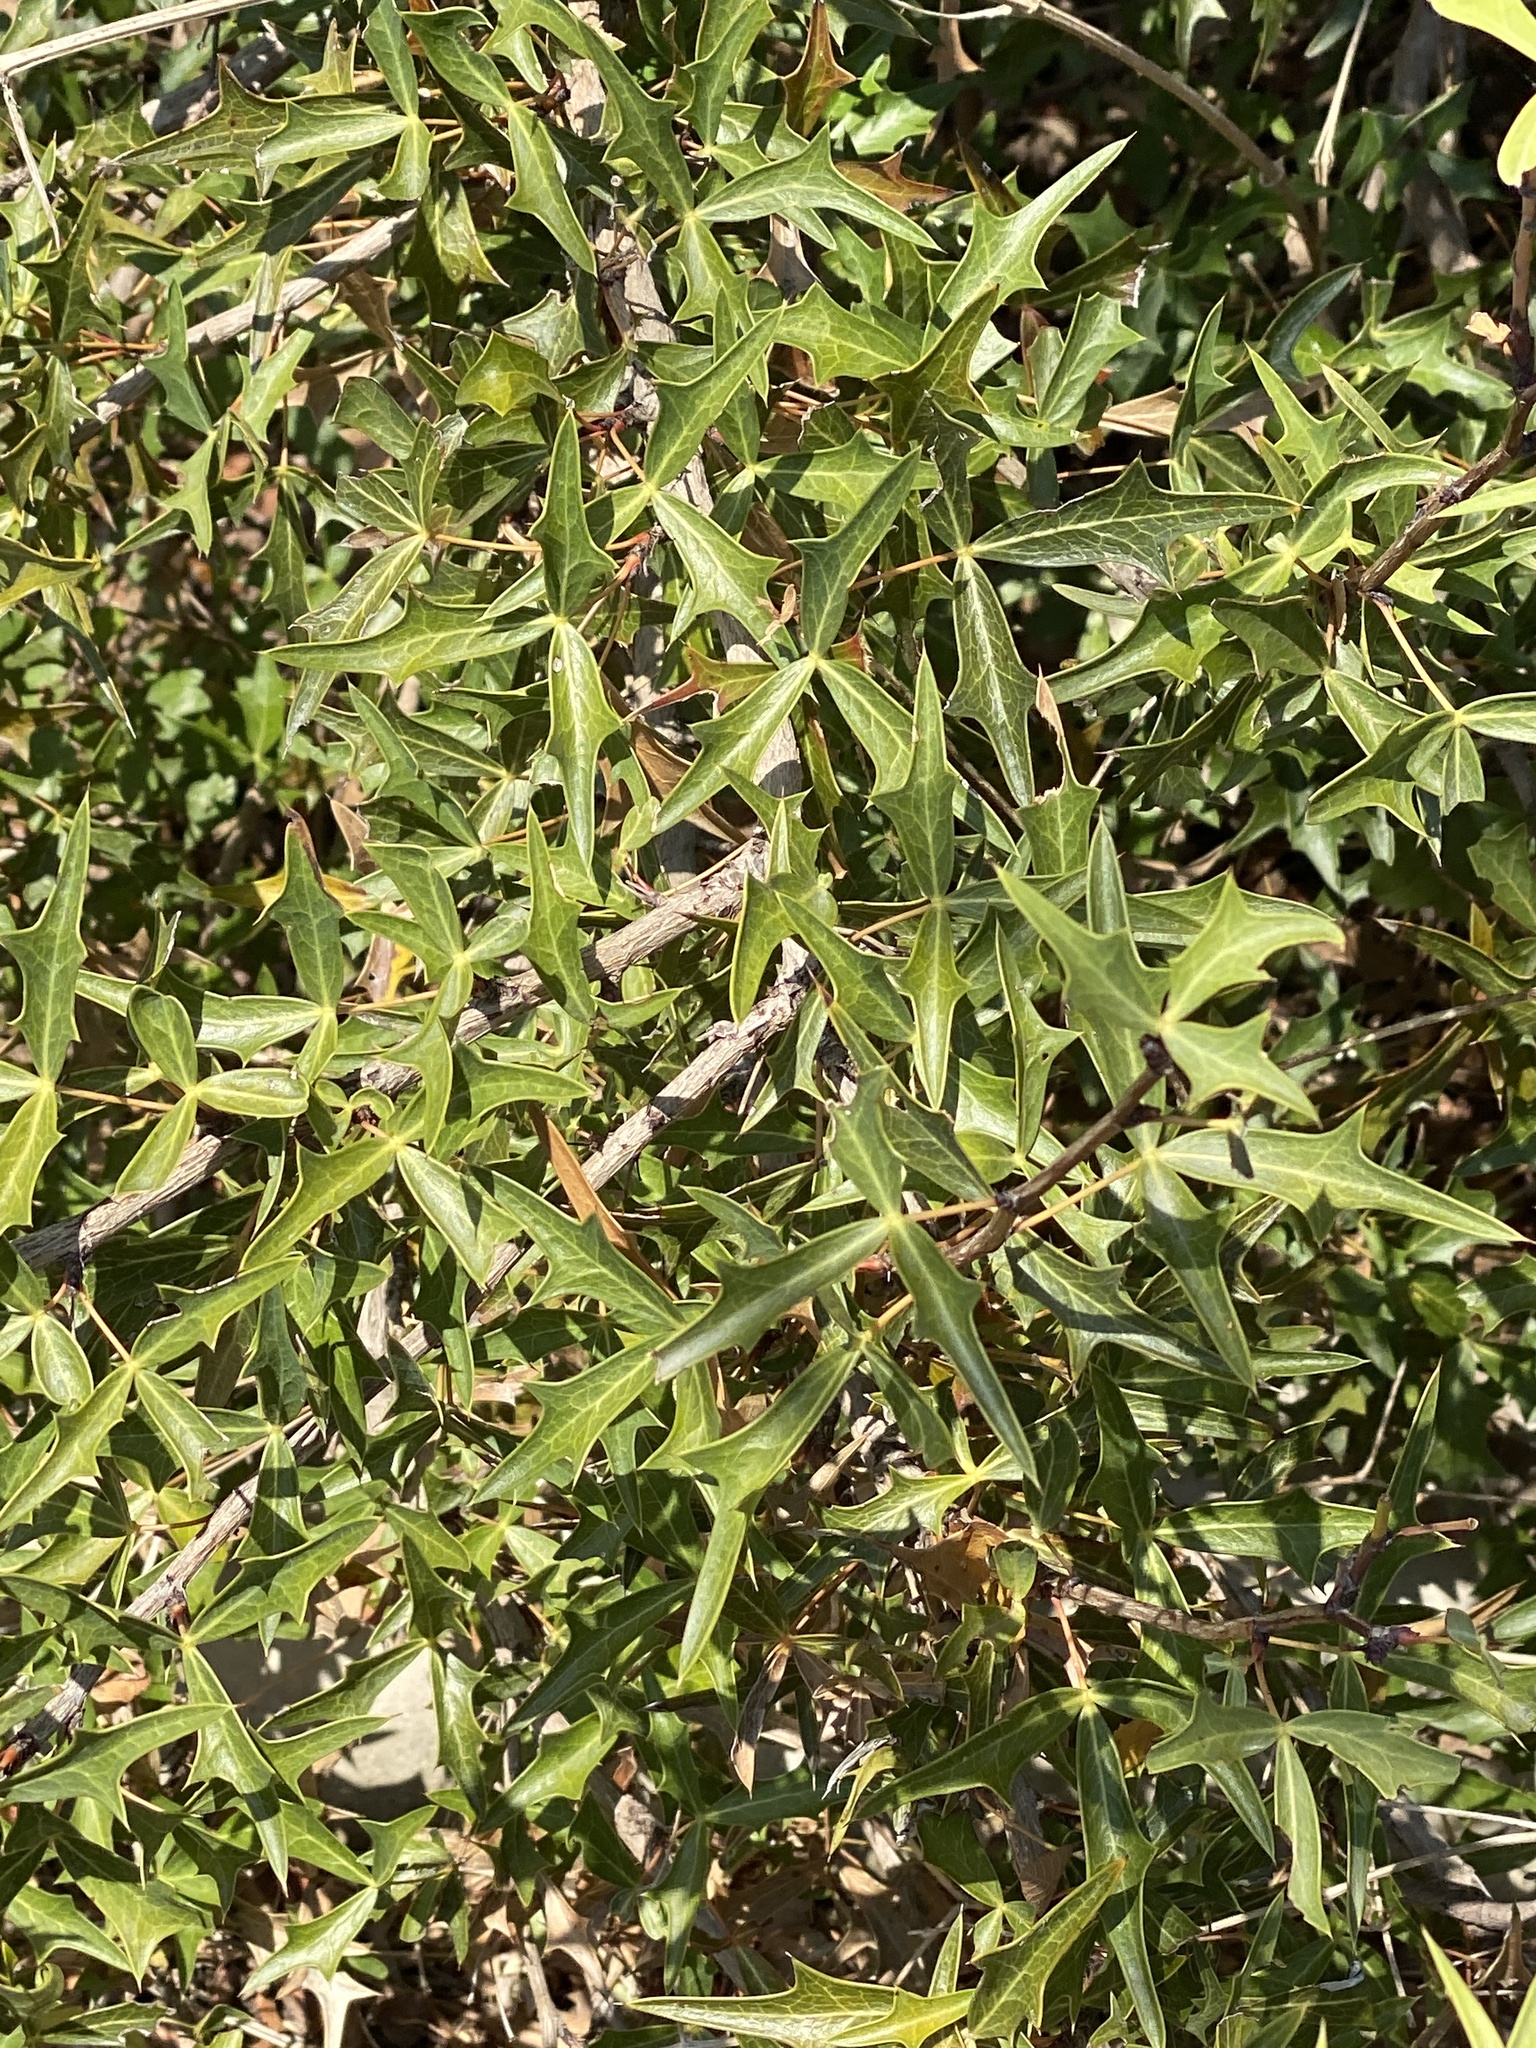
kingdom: Plantae
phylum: Tracheophyta
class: Magnoliopsida
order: Ranunculales
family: Berberidaceae
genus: Alloberberis
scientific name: Alloberberis trifoliolata
